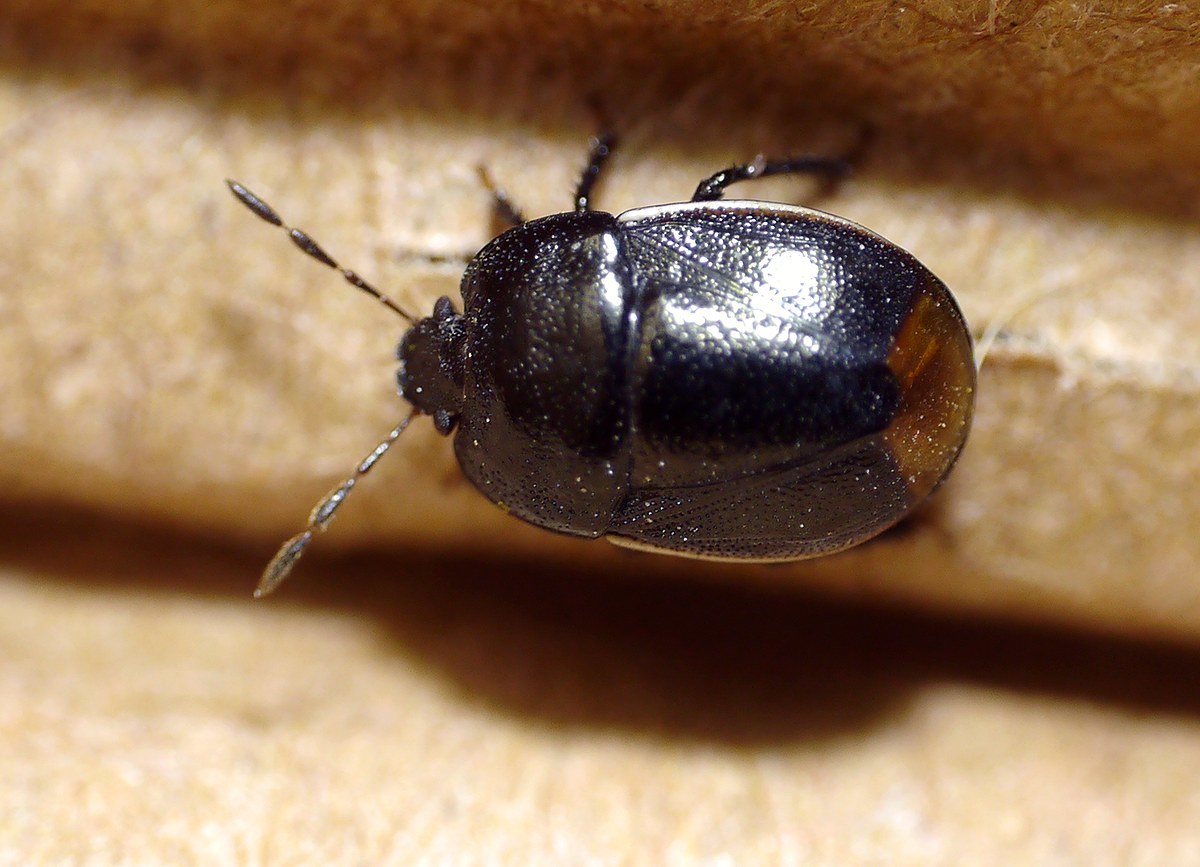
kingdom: Animalia
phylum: Arthropoda
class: Insecta
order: Hemiptera
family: Cydnidae
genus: Legnotus
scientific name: Legnotus limbosus
